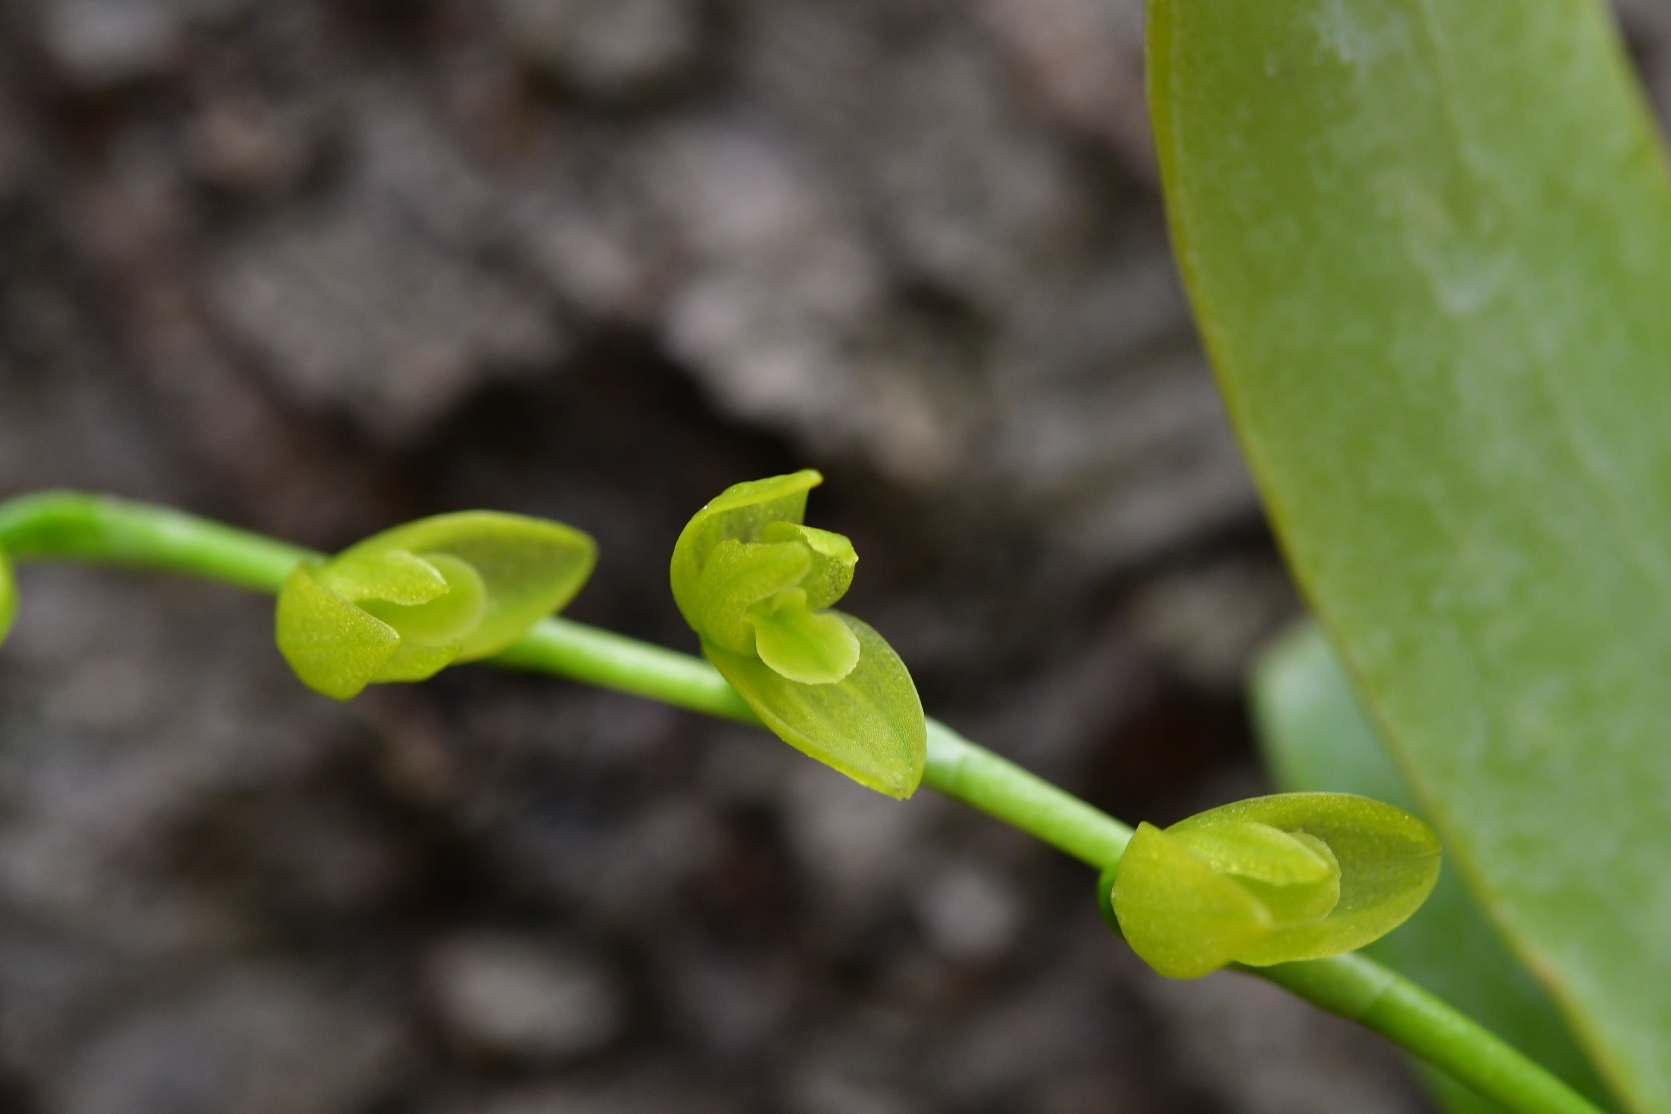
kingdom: Plantae
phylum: Tracheophyta
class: Liliopsida
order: Asparagales
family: Orchidaceae
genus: Pleurothallis
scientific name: Pleurothallis quadrifida
